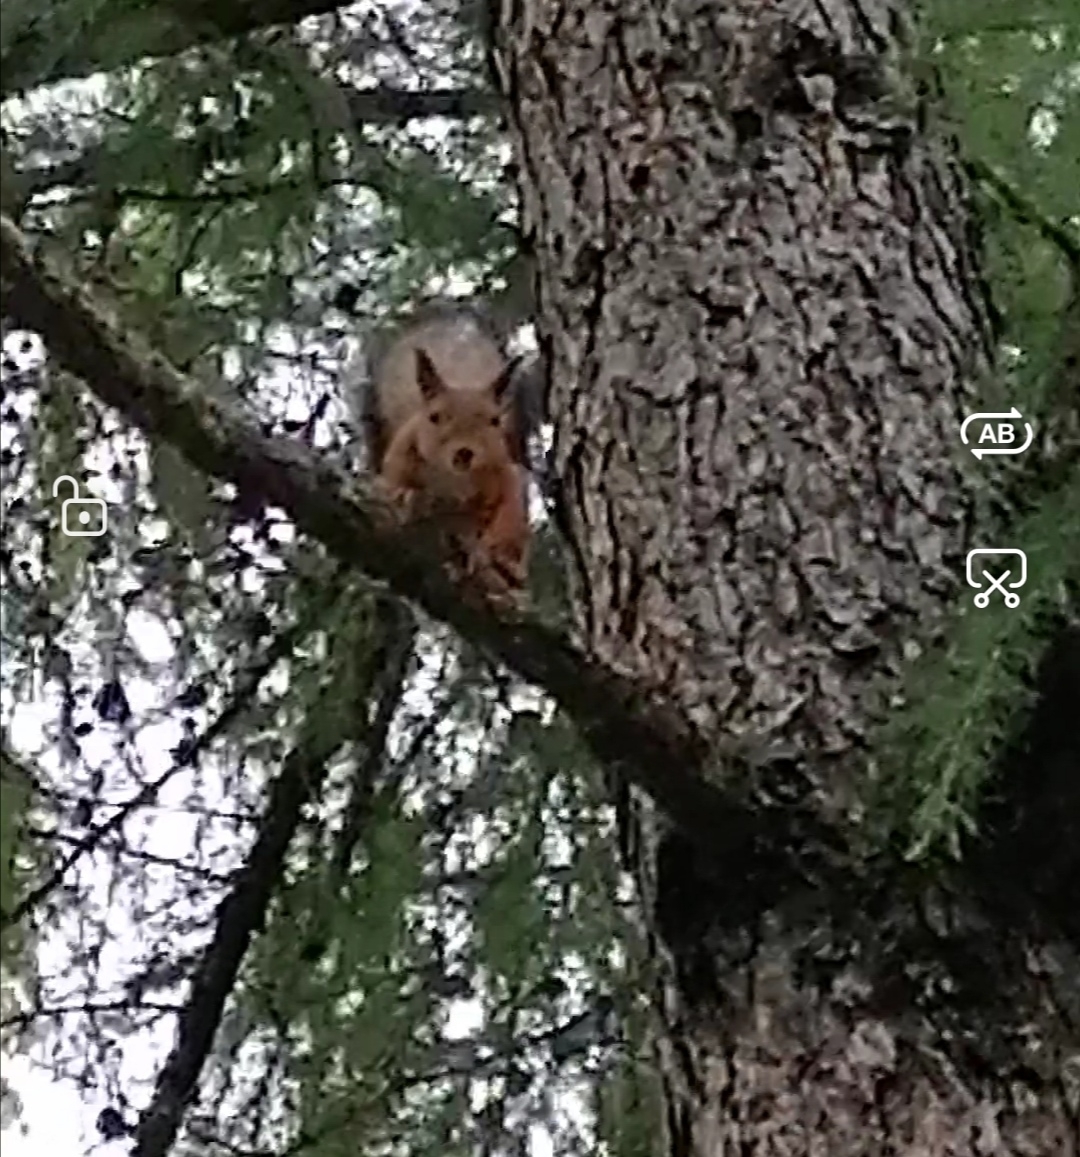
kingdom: Animalia
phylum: Chordata
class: Mammalia
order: Rodentia
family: Sciuridae
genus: Sciurus
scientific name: Sciurus vulgaris
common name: Eurasian red squirrel
